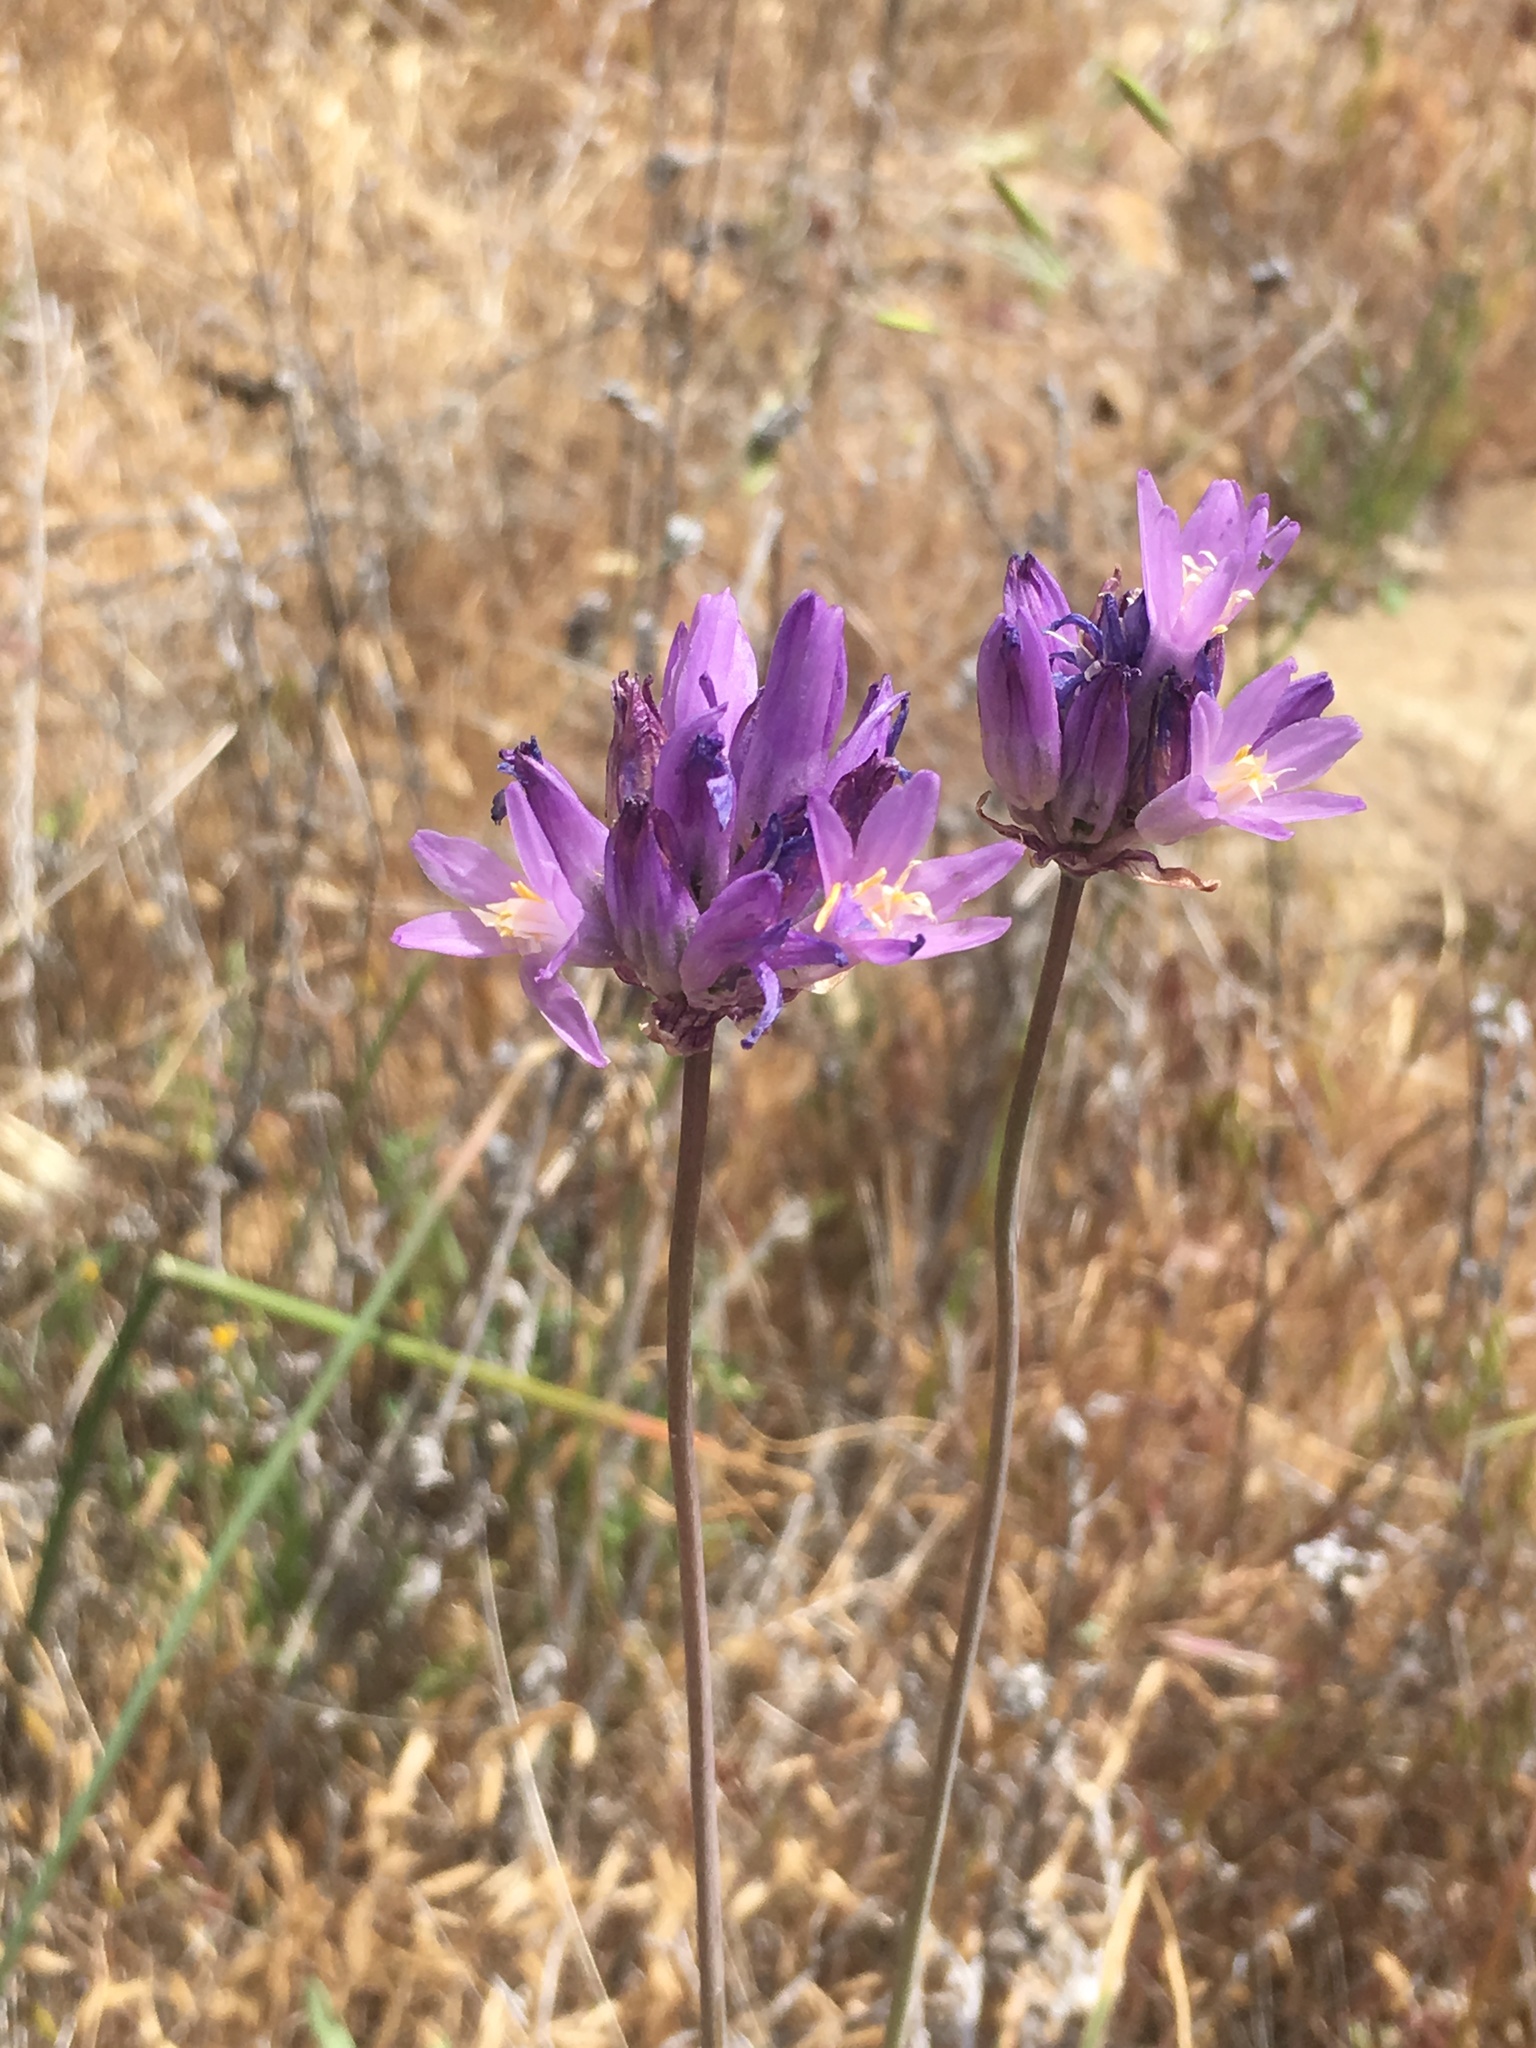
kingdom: Plantae
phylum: Tracheophyta
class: Liliopsida
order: Asparagales
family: Asparagaceae
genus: Dipterostemon
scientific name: Dipterostemon capitatus
